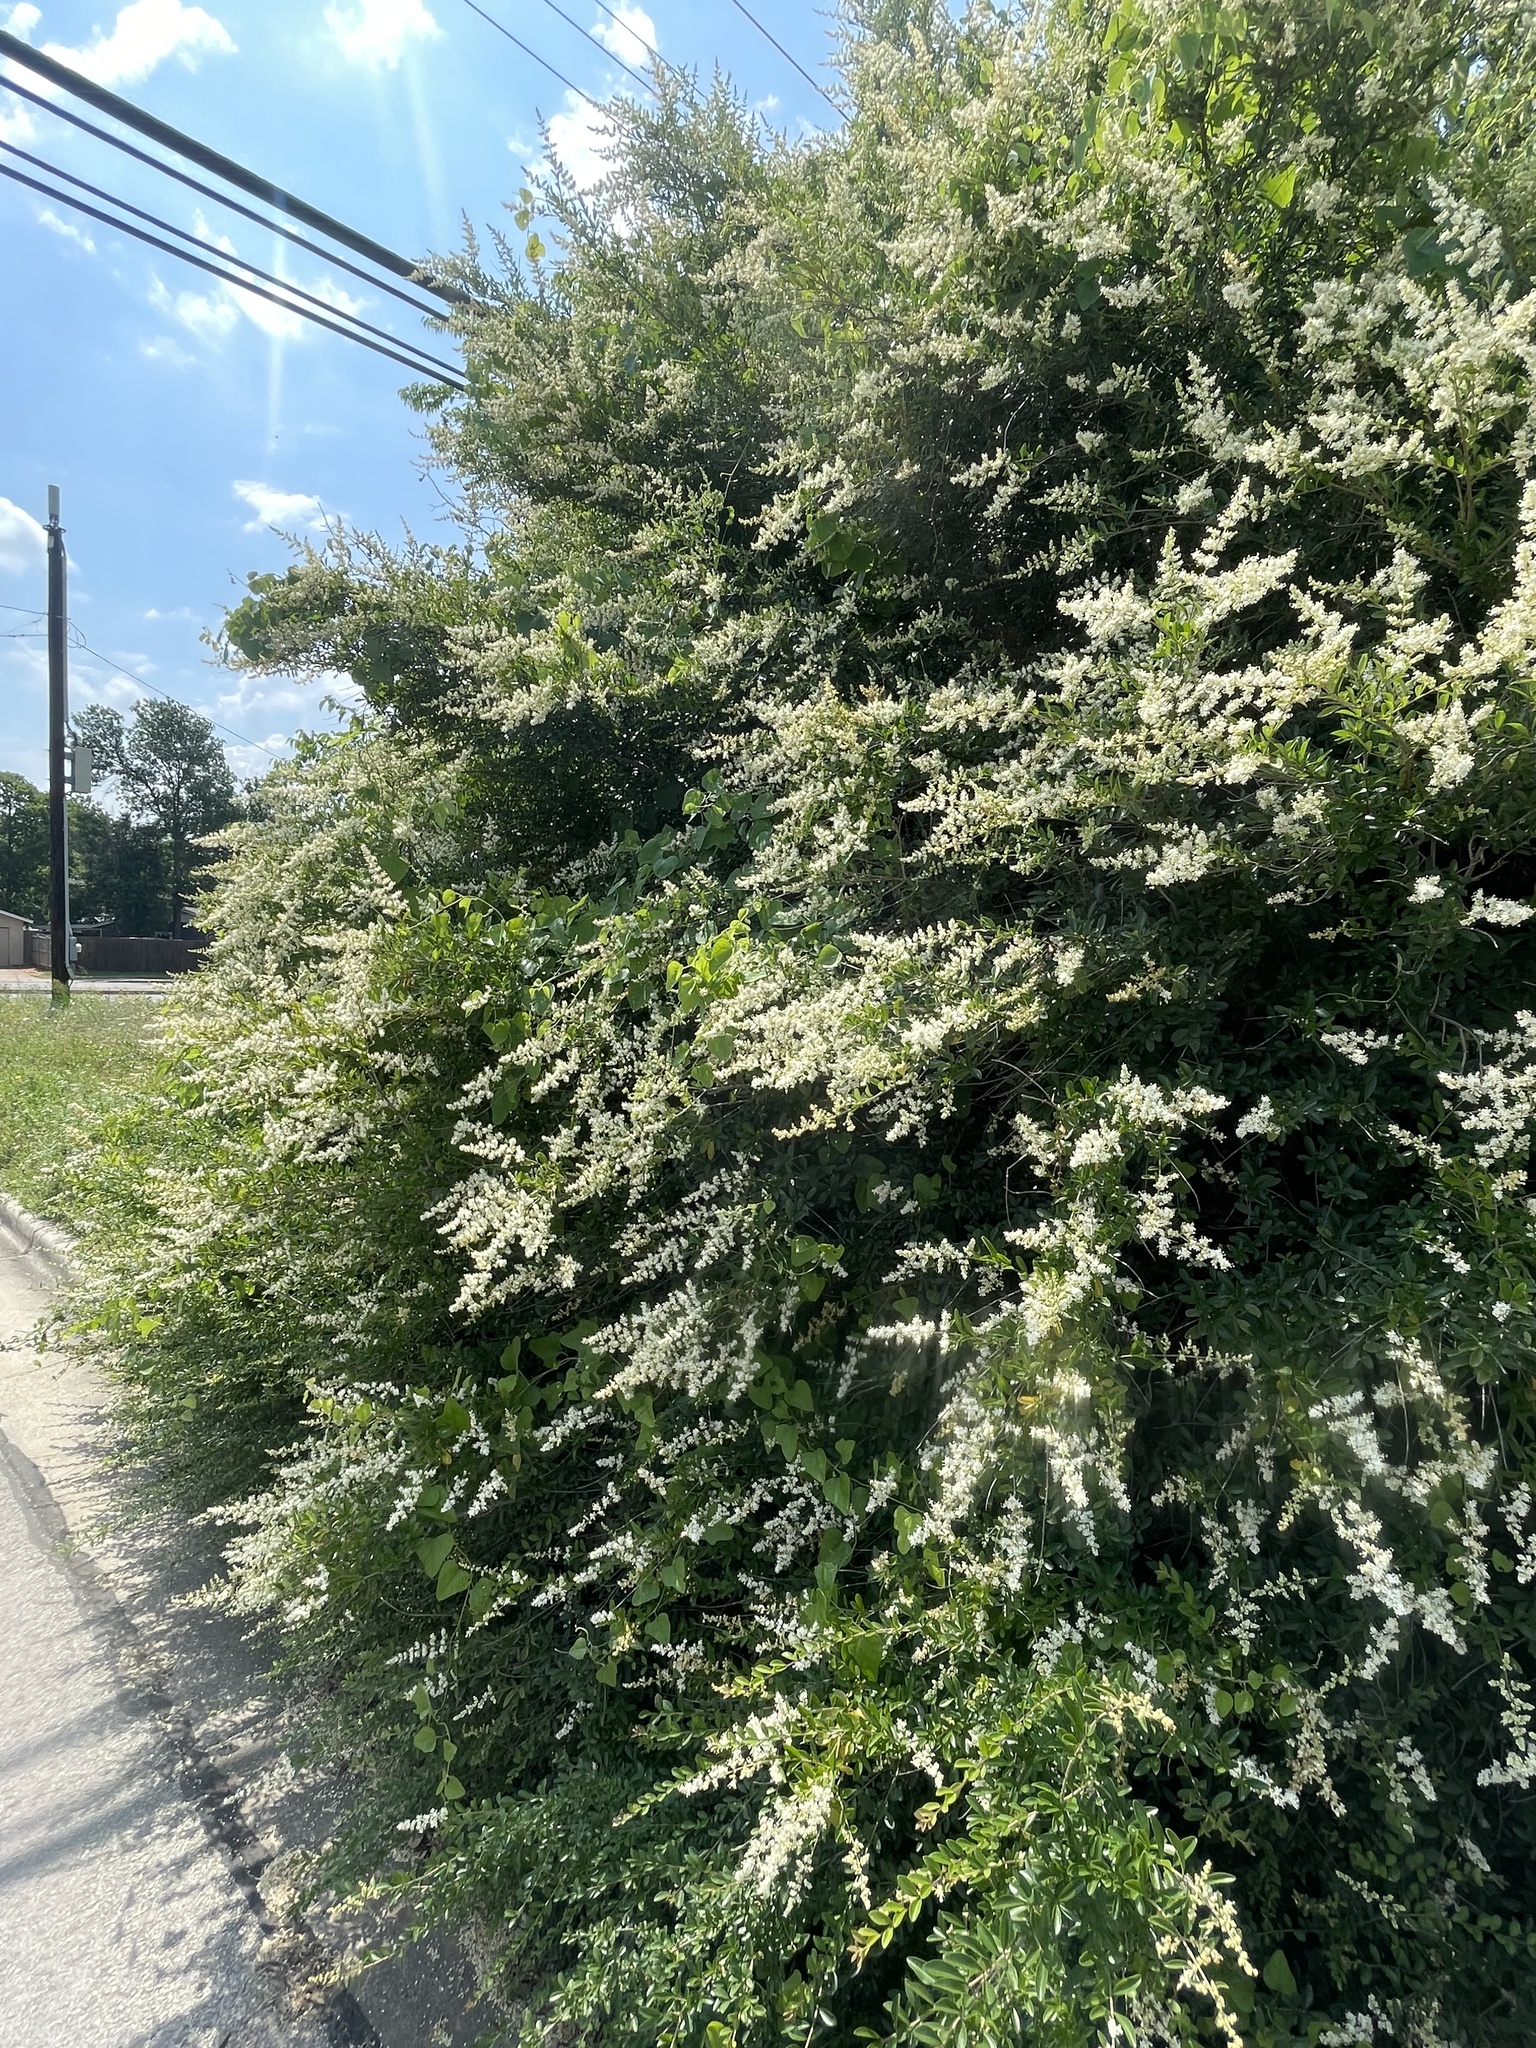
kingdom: Plantae
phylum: Tracheophyta
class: Magnoliopsida
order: Lamiales
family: Oleaceae
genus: Ligustrum
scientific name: Ligustrum quihoui
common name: Waxyleaf privet
